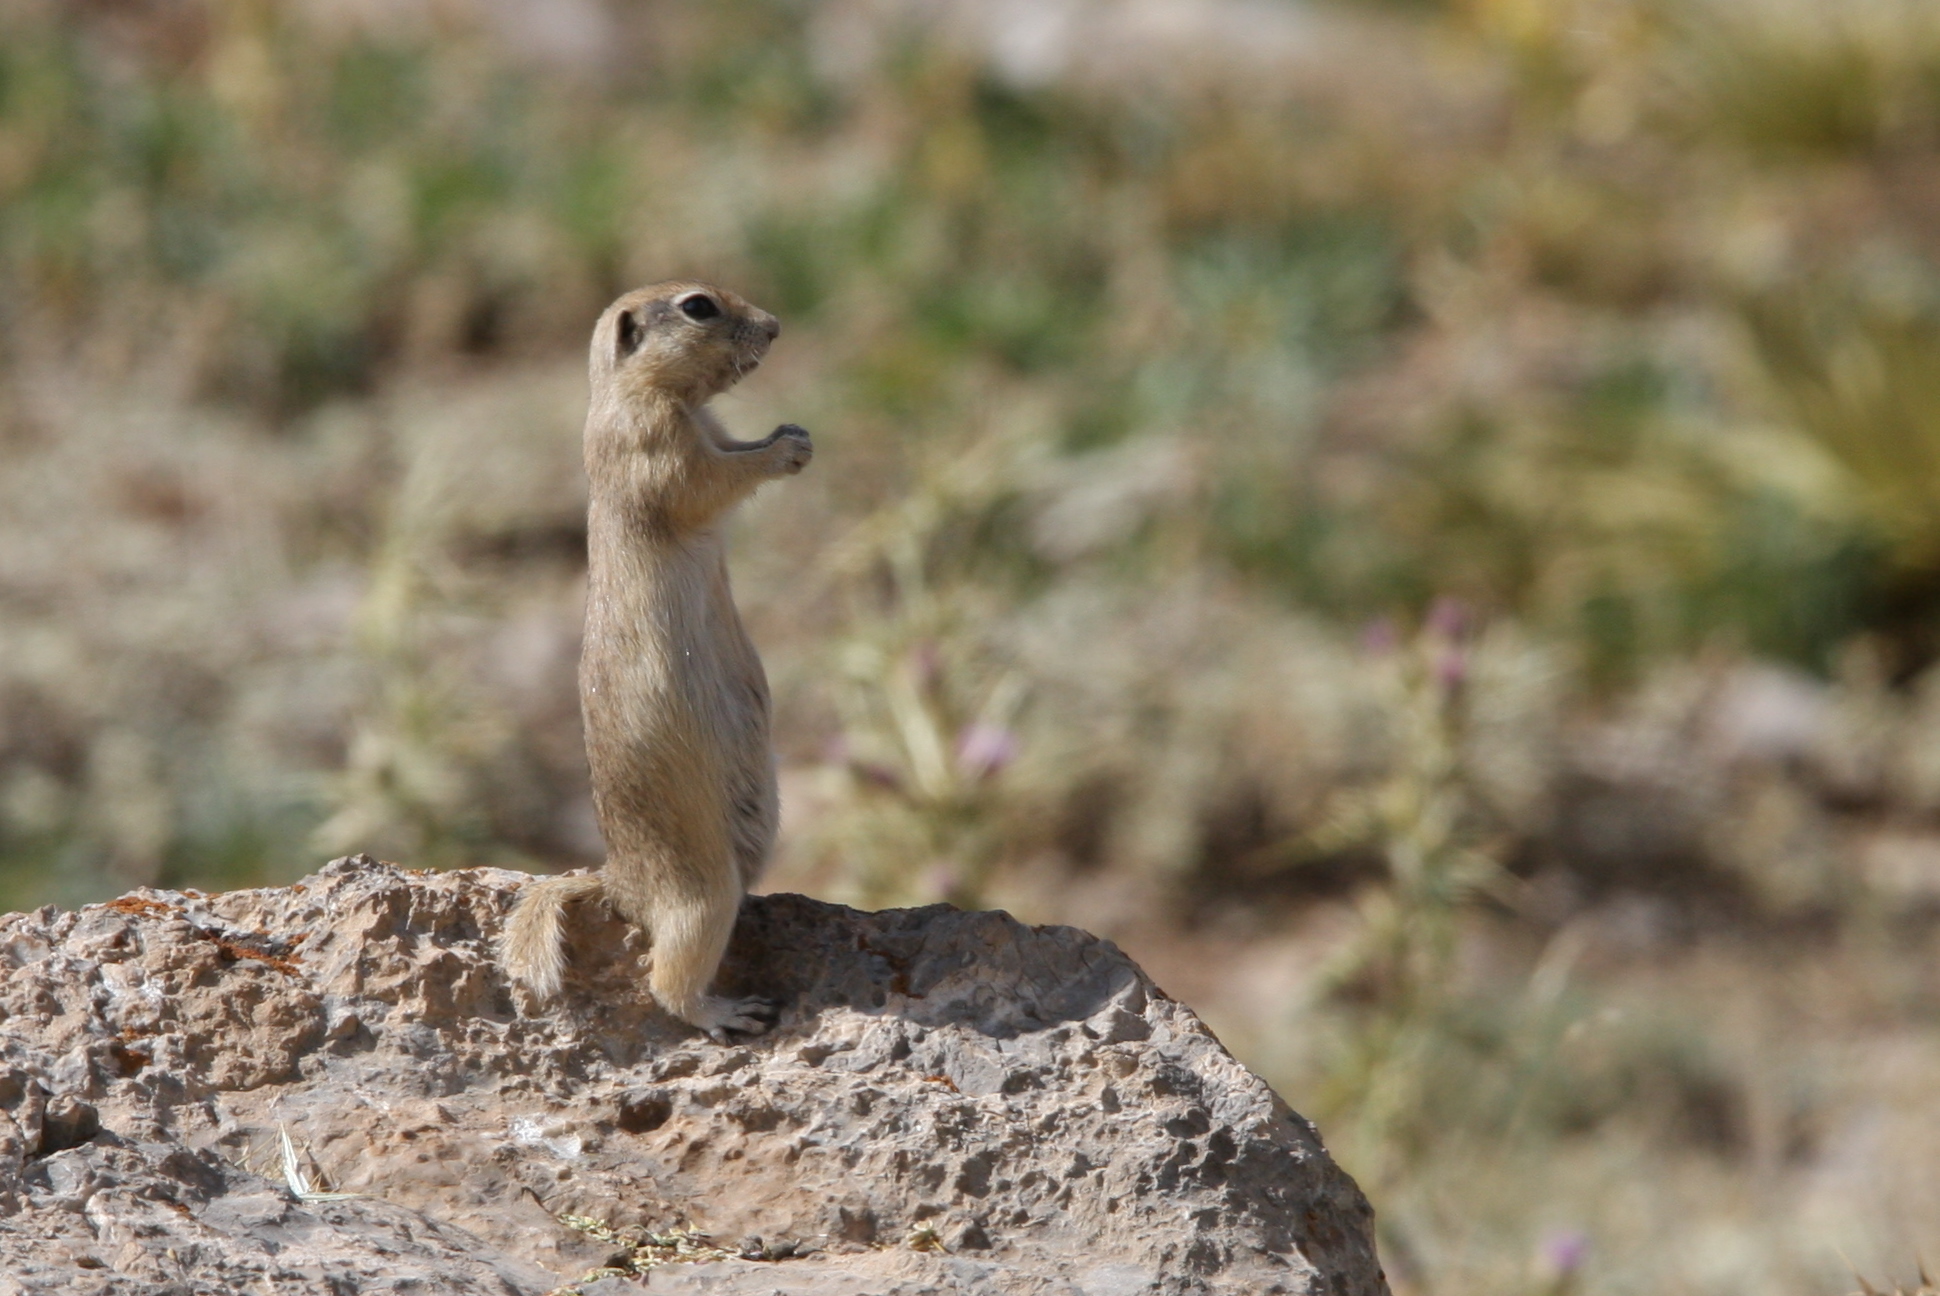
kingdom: Animalia
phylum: Chordata
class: Mammalia
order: Rodentia
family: Sciuridae
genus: Spermophilus
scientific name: Spermophilus xanthoprymnus
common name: Asia minor ground squirrel
